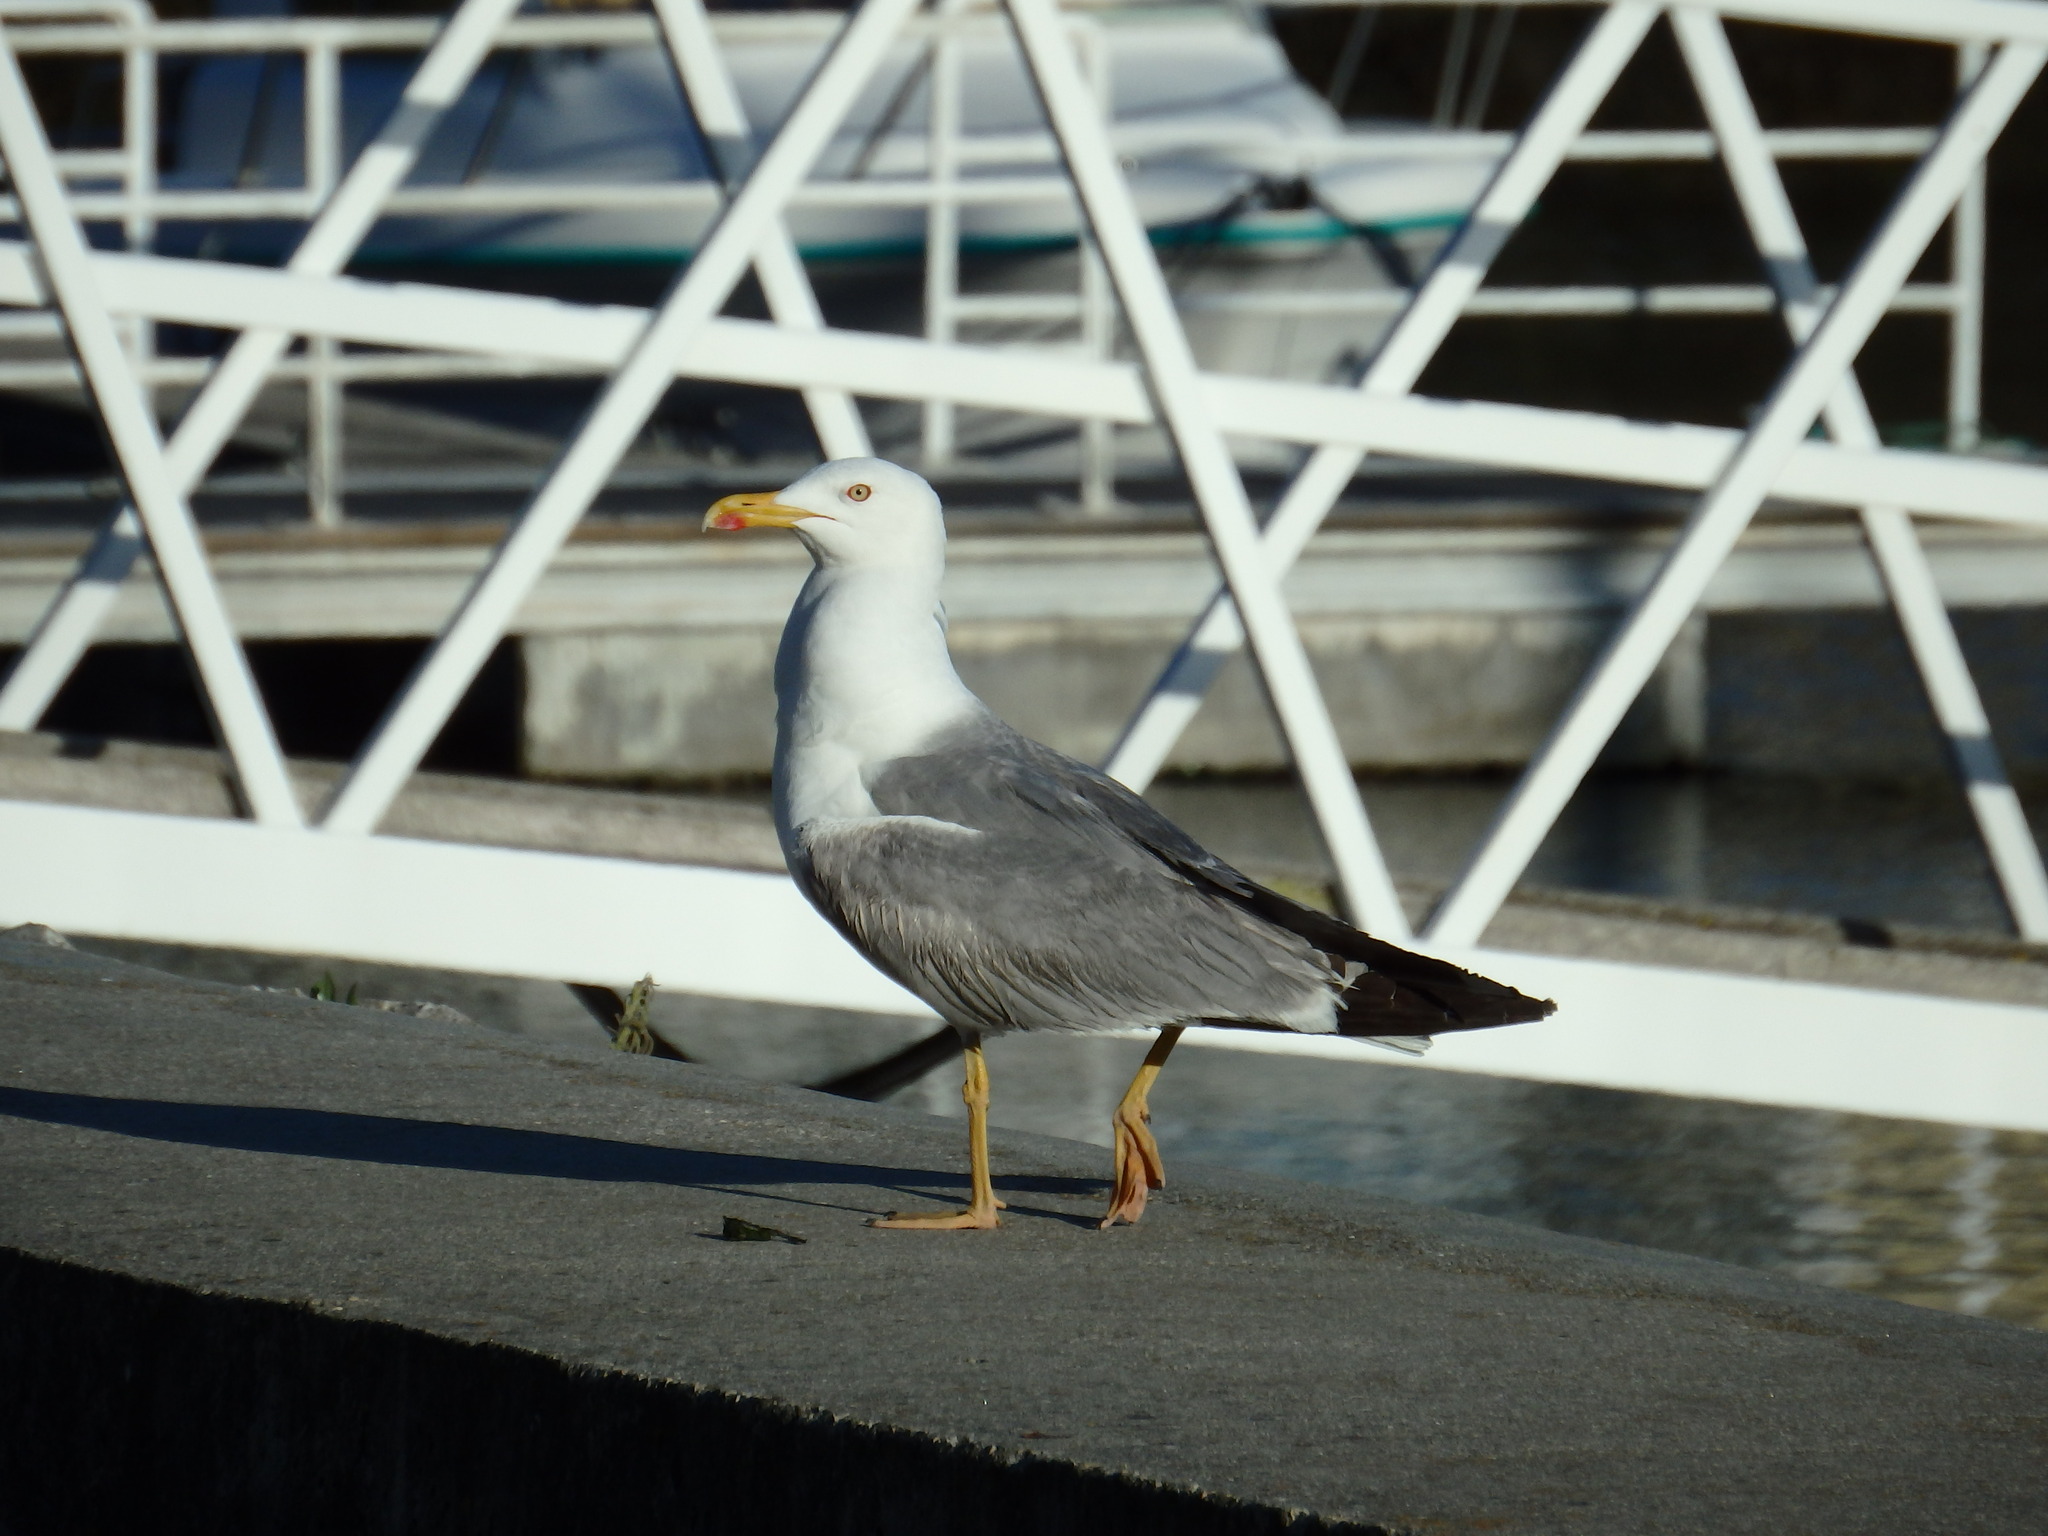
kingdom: Animalia
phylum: Chordata
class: Aves
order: Charadriiformes
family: Laridae
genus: Larus
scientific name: Larus michahellis
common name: Yellow-legged gull
